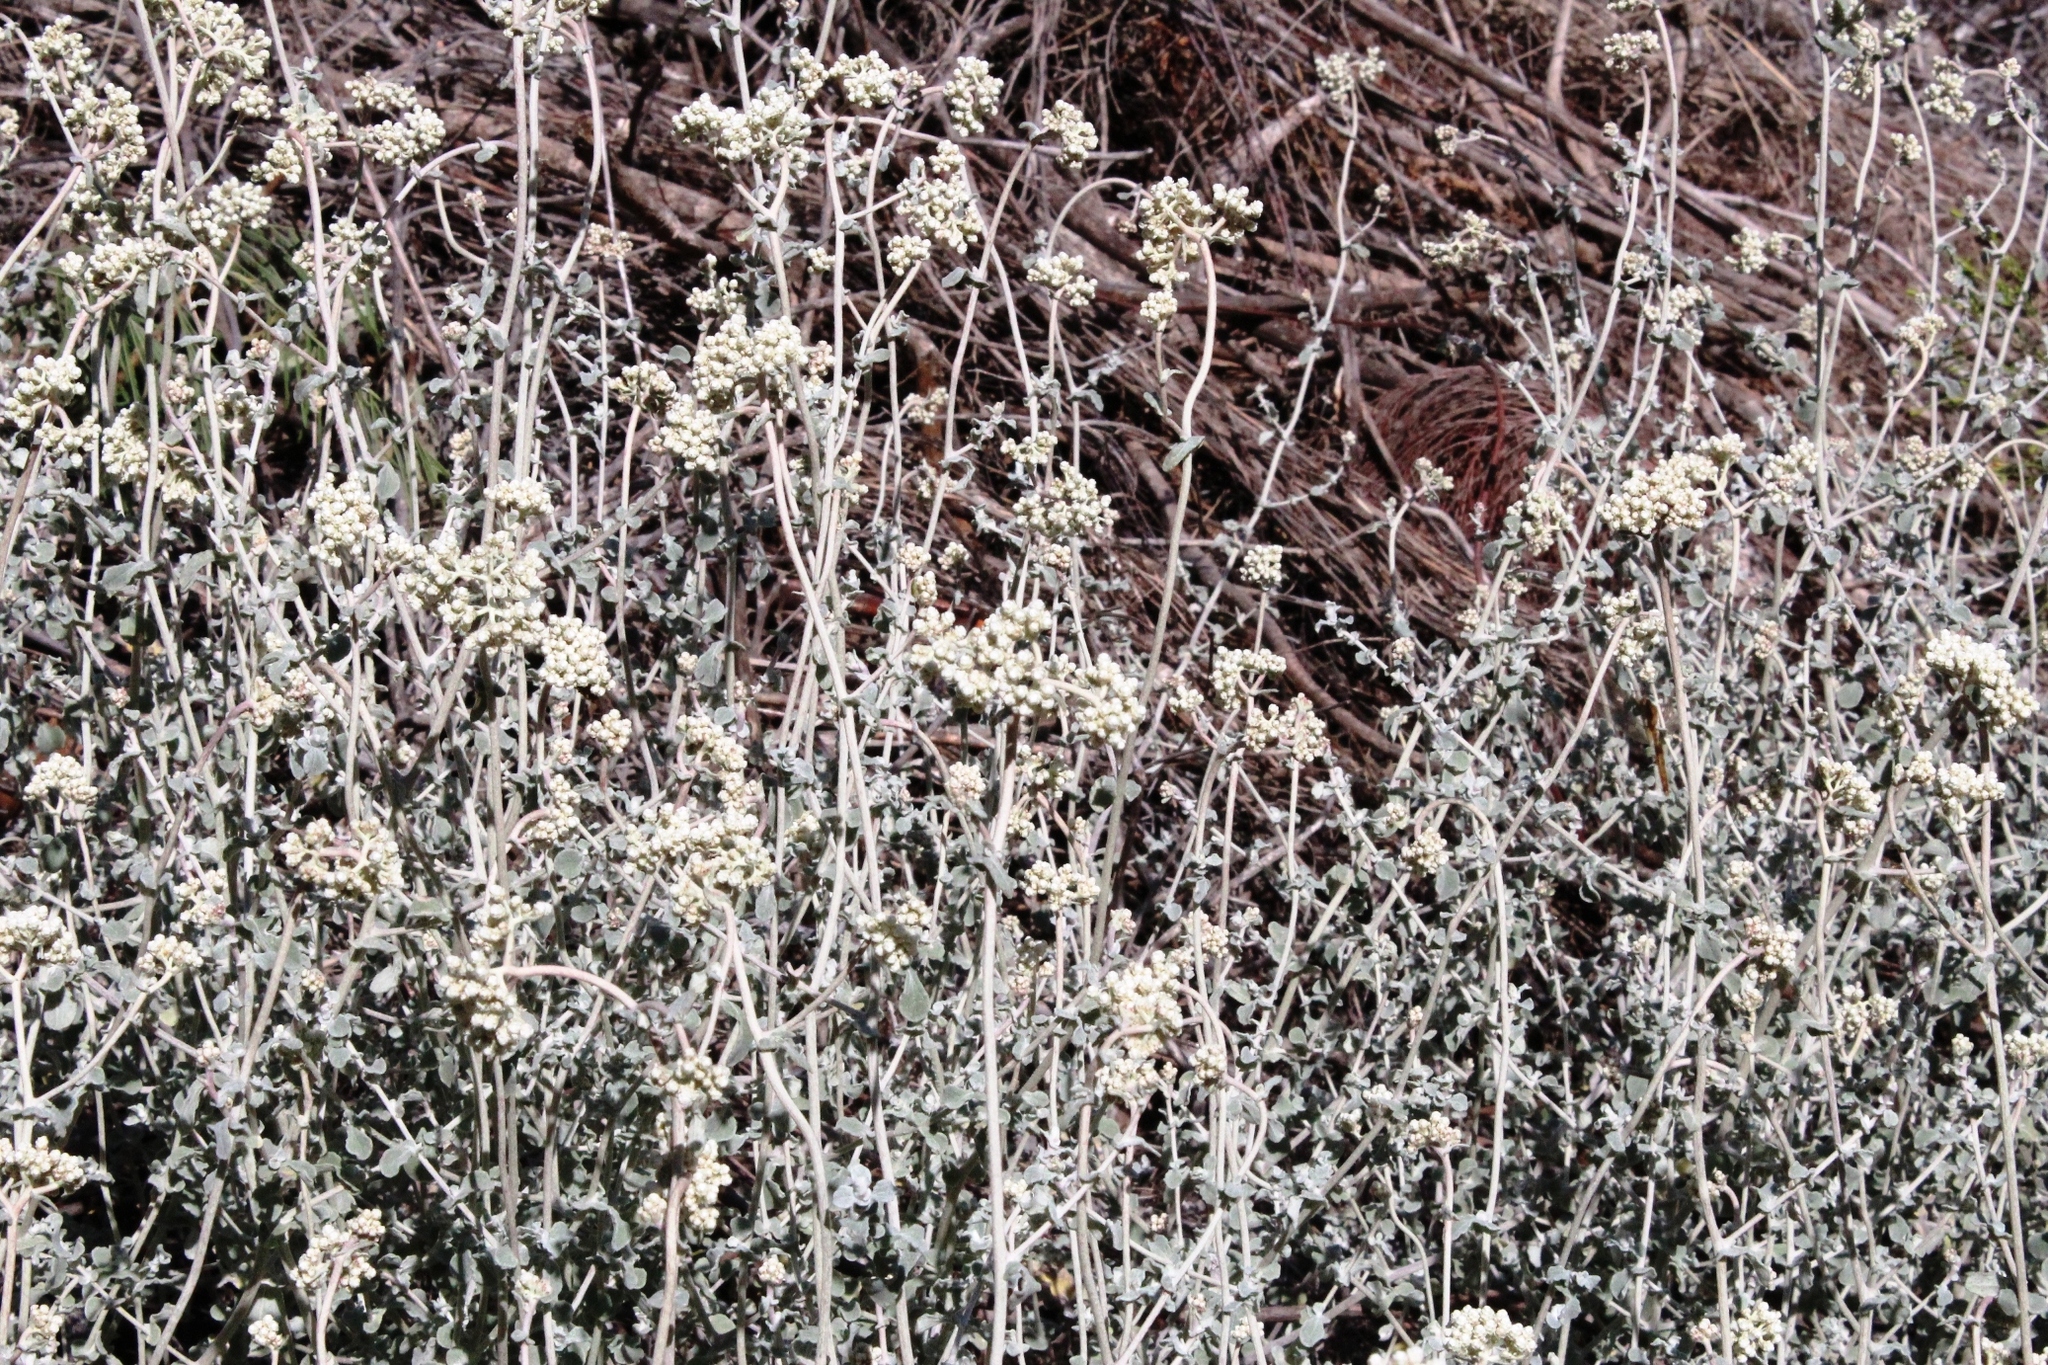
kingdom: Plantae
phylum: Tracheophyta
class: Magnoliopsida
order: Asterales
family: Asteraceae
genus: Helichrysum
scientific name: Helichrysum patulum
